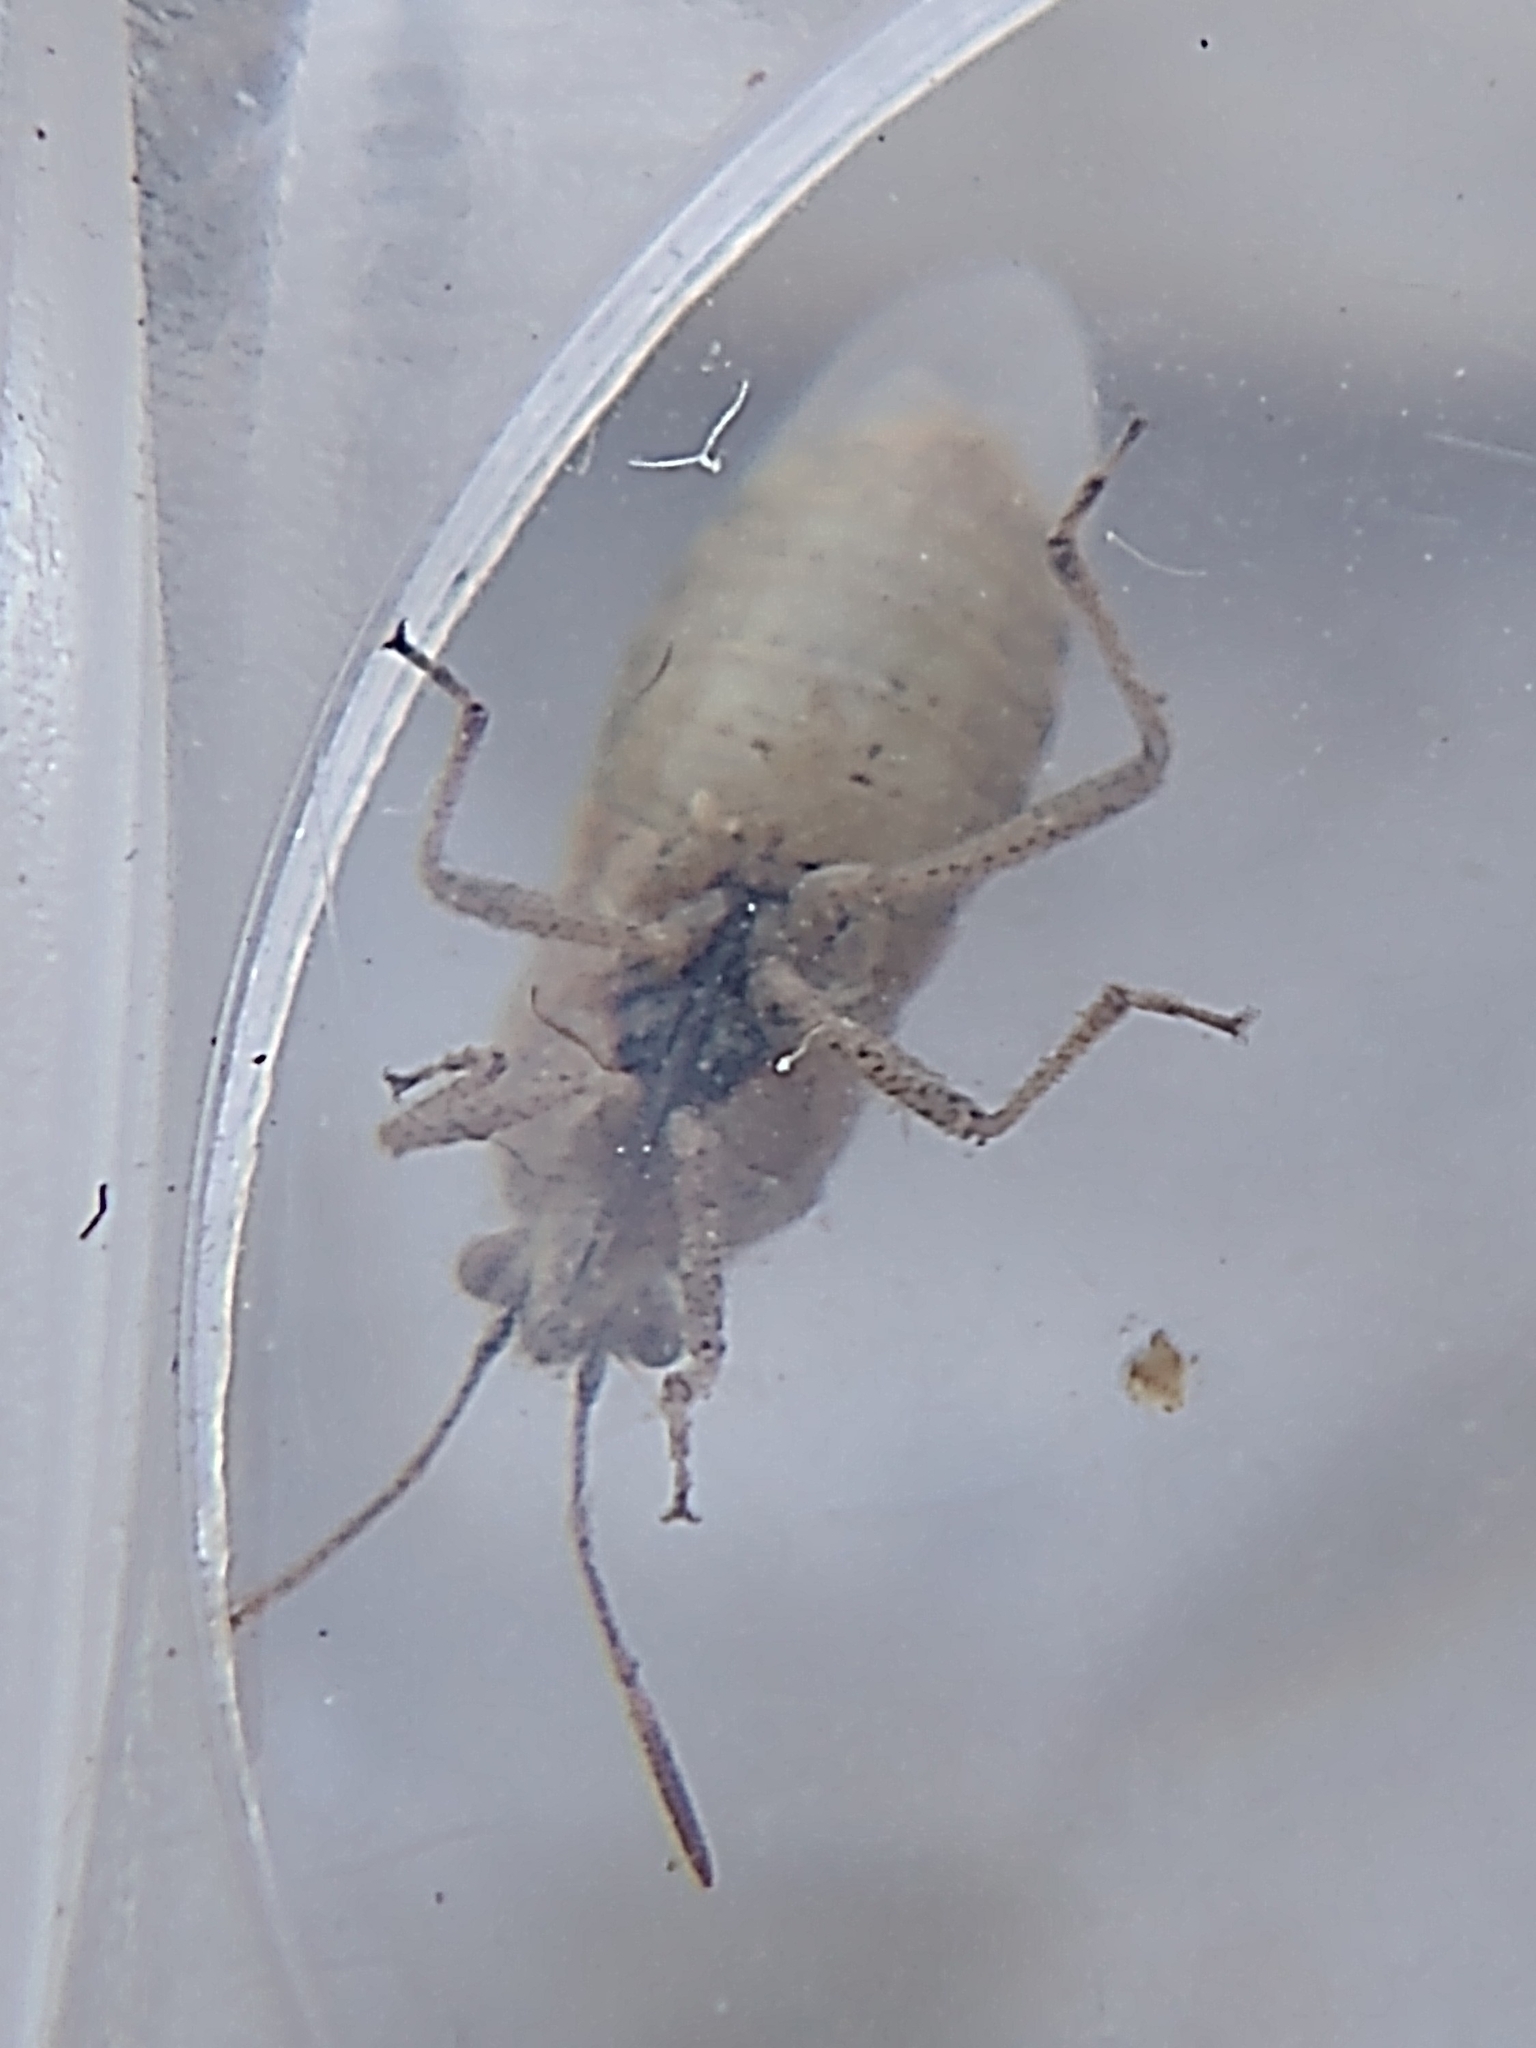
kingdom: Animalia
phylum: Arthropoda
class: Insecta
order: Hemiptera
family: Rhopalidae
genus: Liorhyssus
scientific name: Liorhyssus hyalinus
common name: Scentless plant bug
